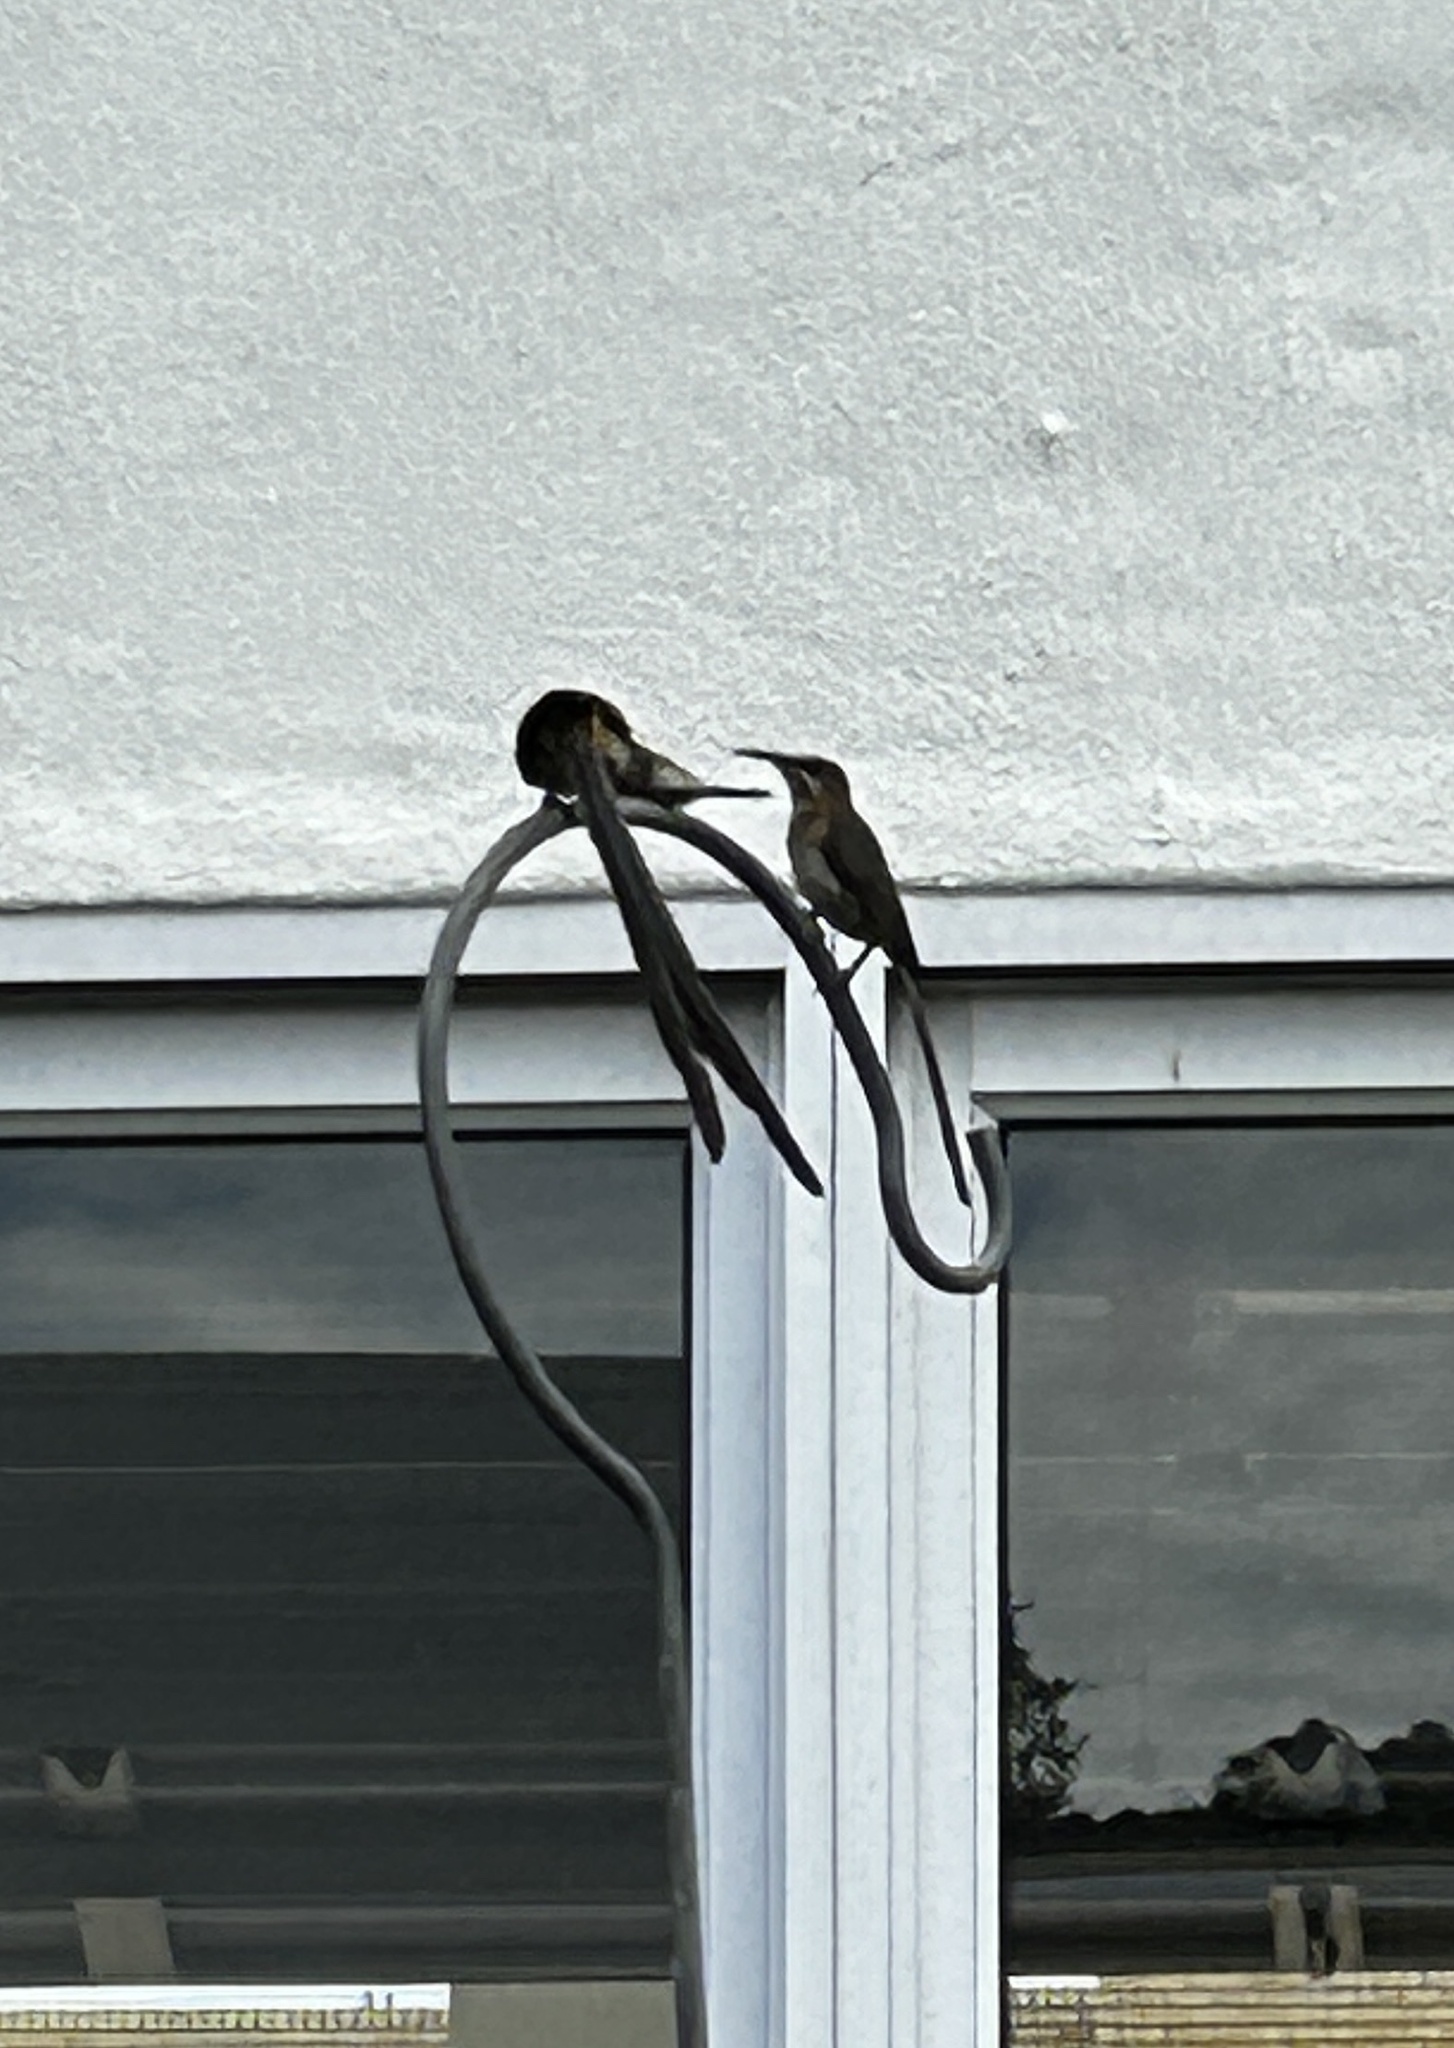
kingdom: Animalia
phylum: Chordata
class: Aves
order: Passeriformes
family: Promeropidae
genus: Promerops
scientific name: Promerops cafer
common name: Cape sugarbird
